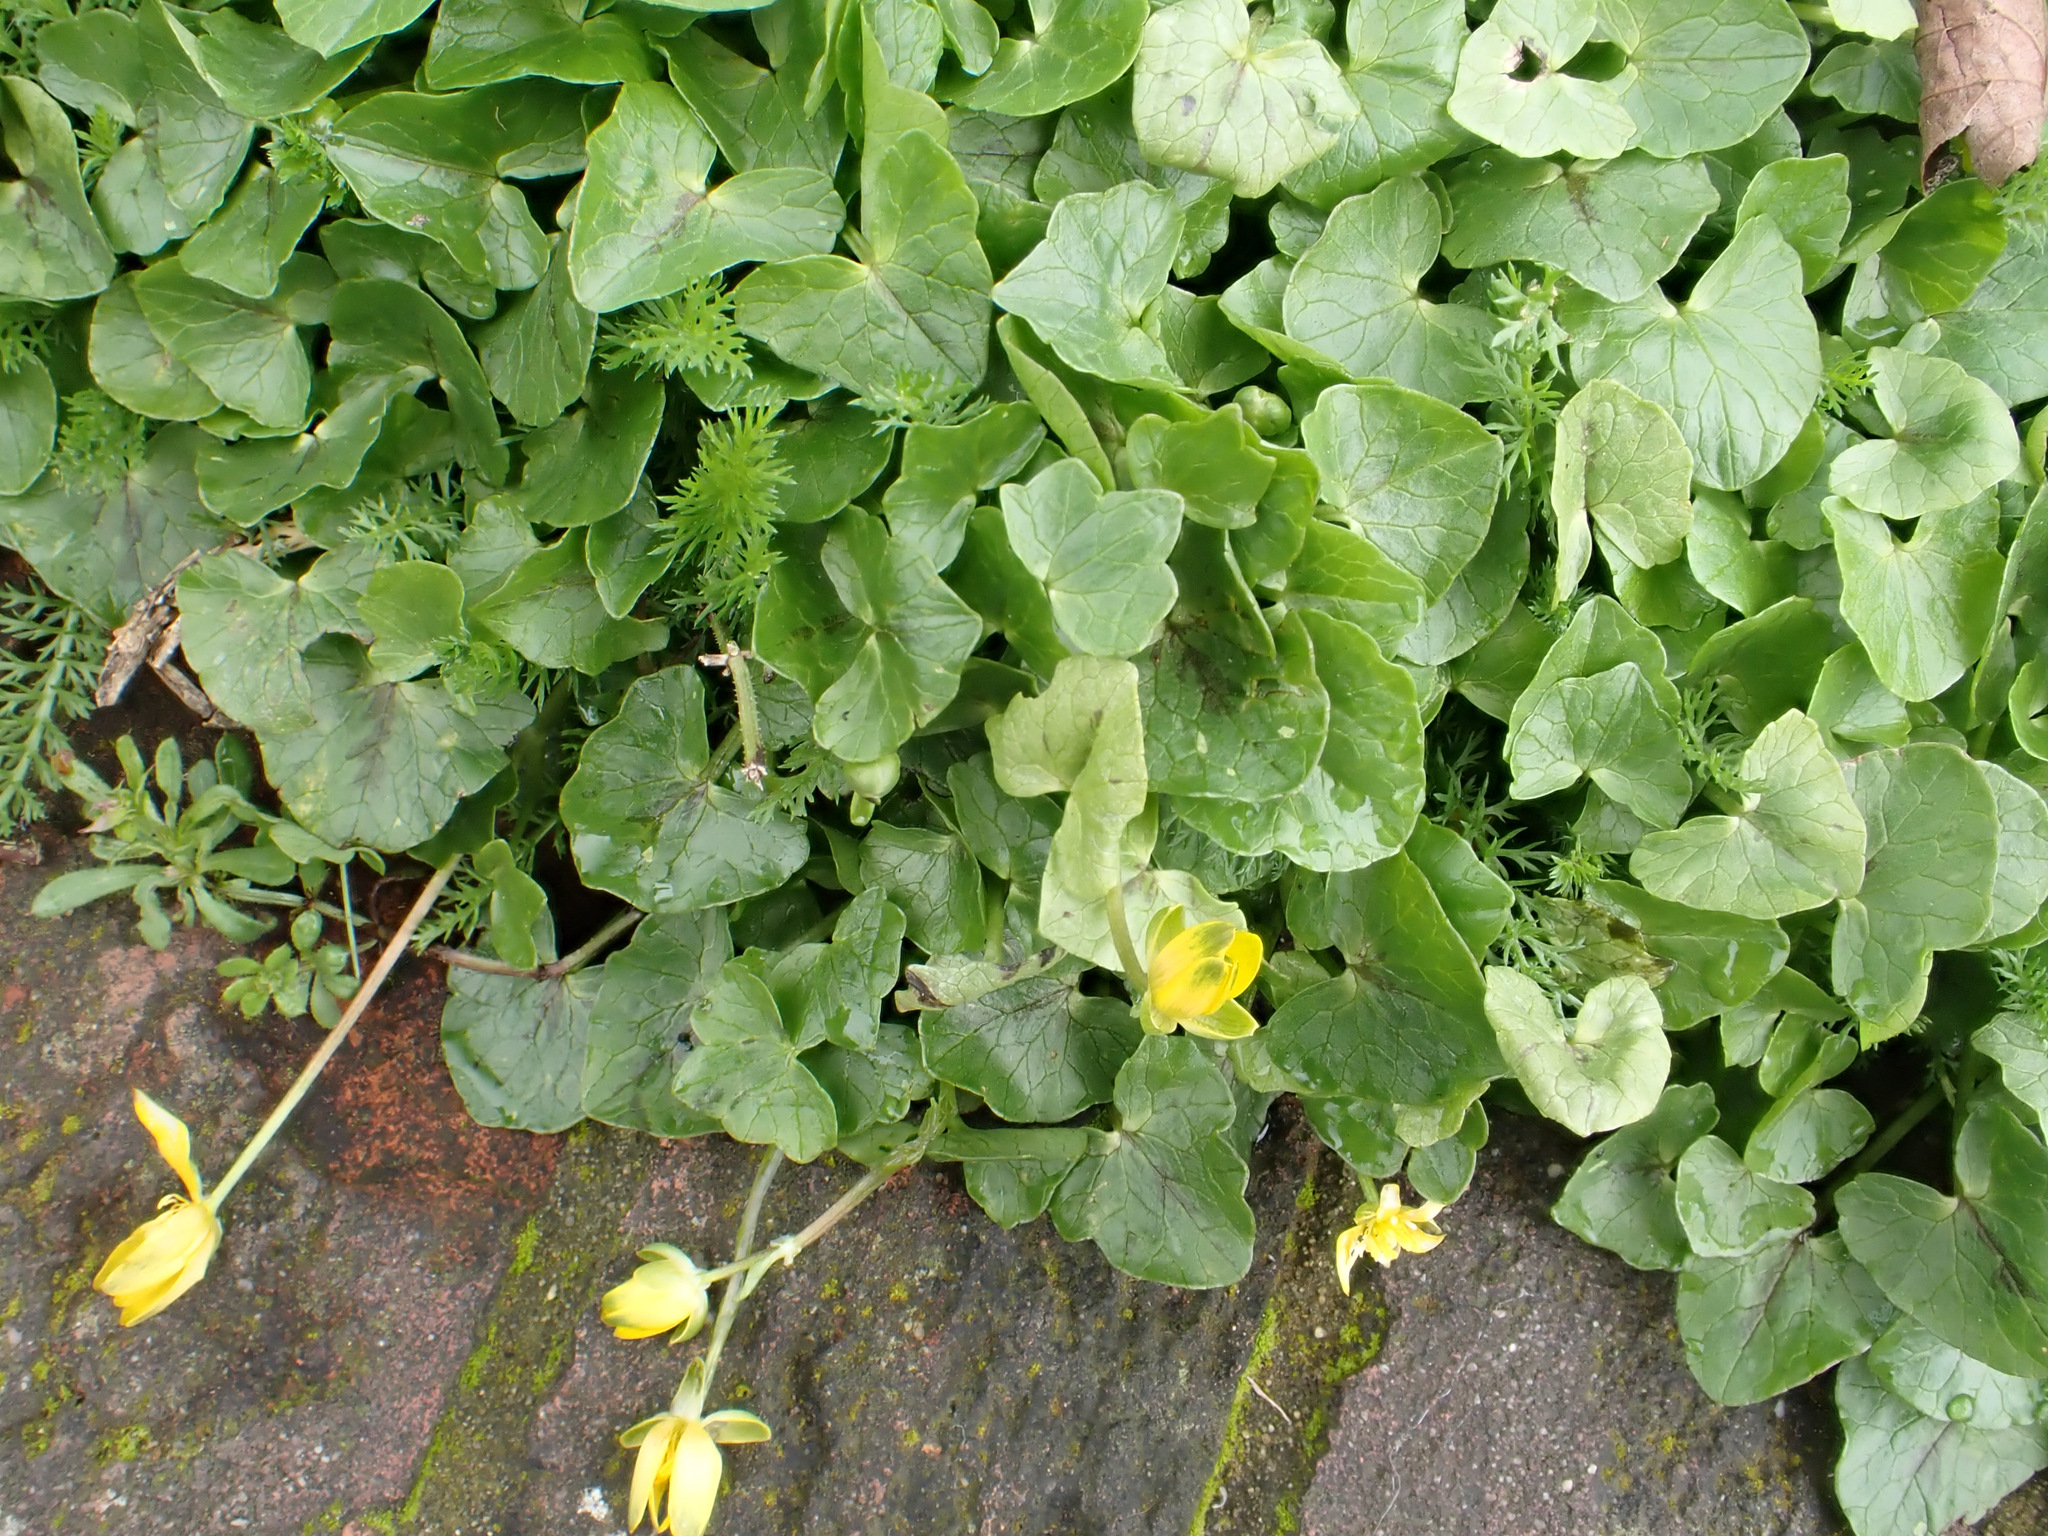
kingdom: Plantae
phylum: Tracheophyta
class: Magnoliopsida
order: Ranunculales
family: Ranunculaceae
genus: Ficaria
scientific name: Ficaria verna
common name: Lesser celandine
